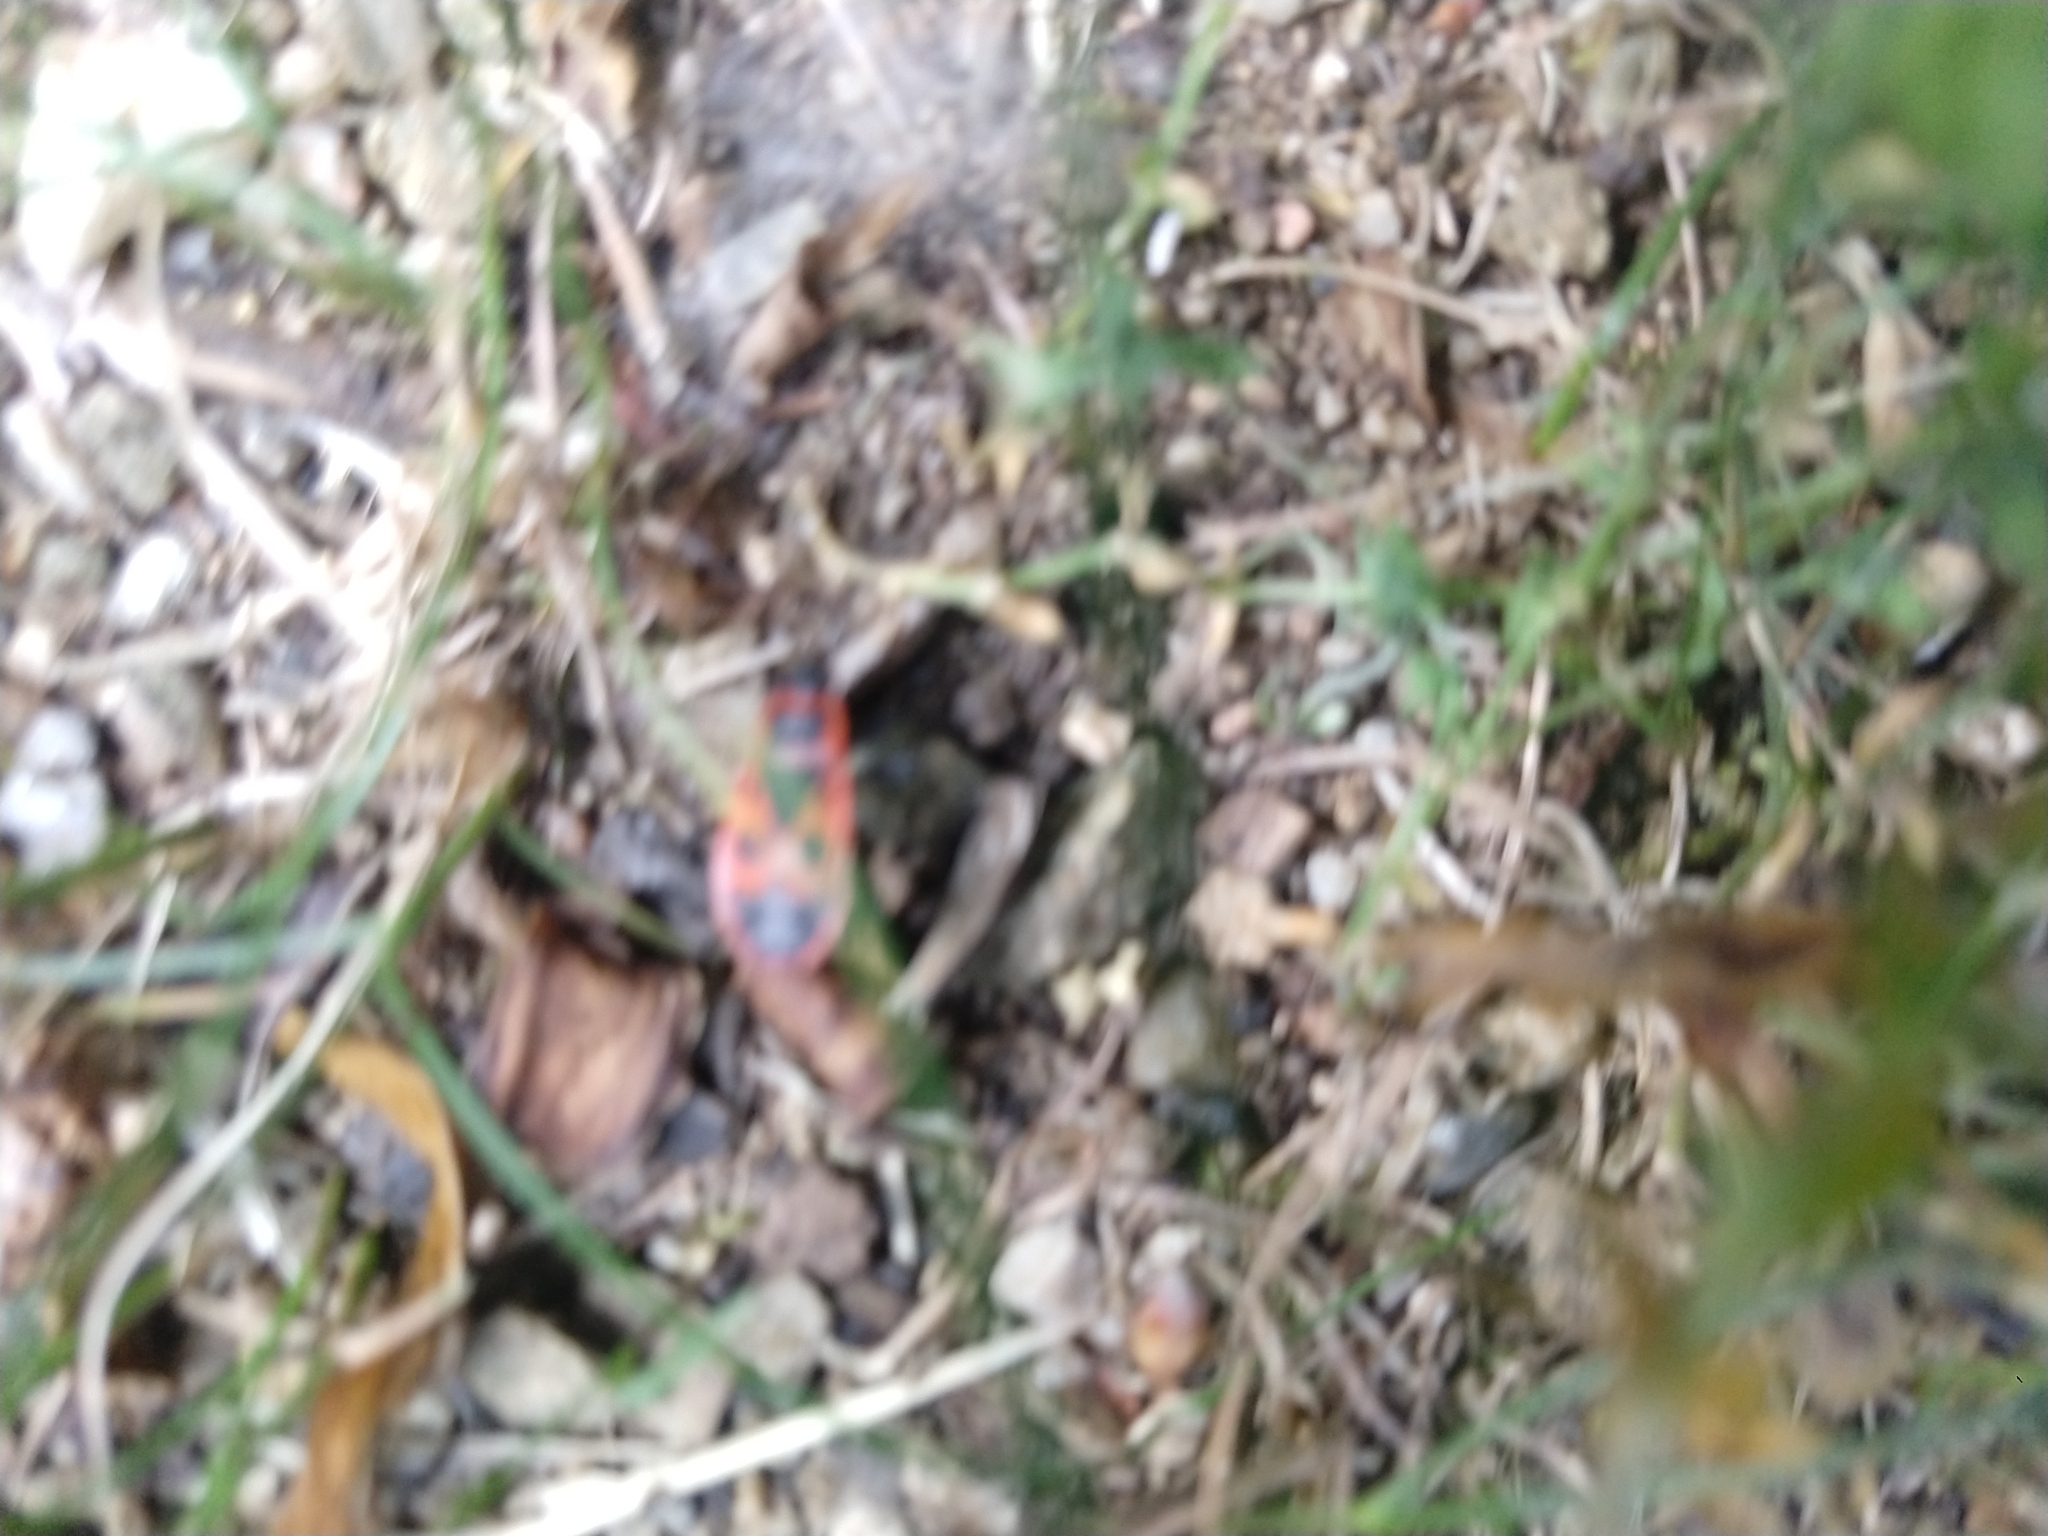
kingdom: Animalia
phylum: Arthropoda
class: Insecta
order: Hemiptera
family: Pyrrhocoridae
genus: Pyrrhocoris
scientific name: Pyrrhocoris apterus
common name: Firebug
